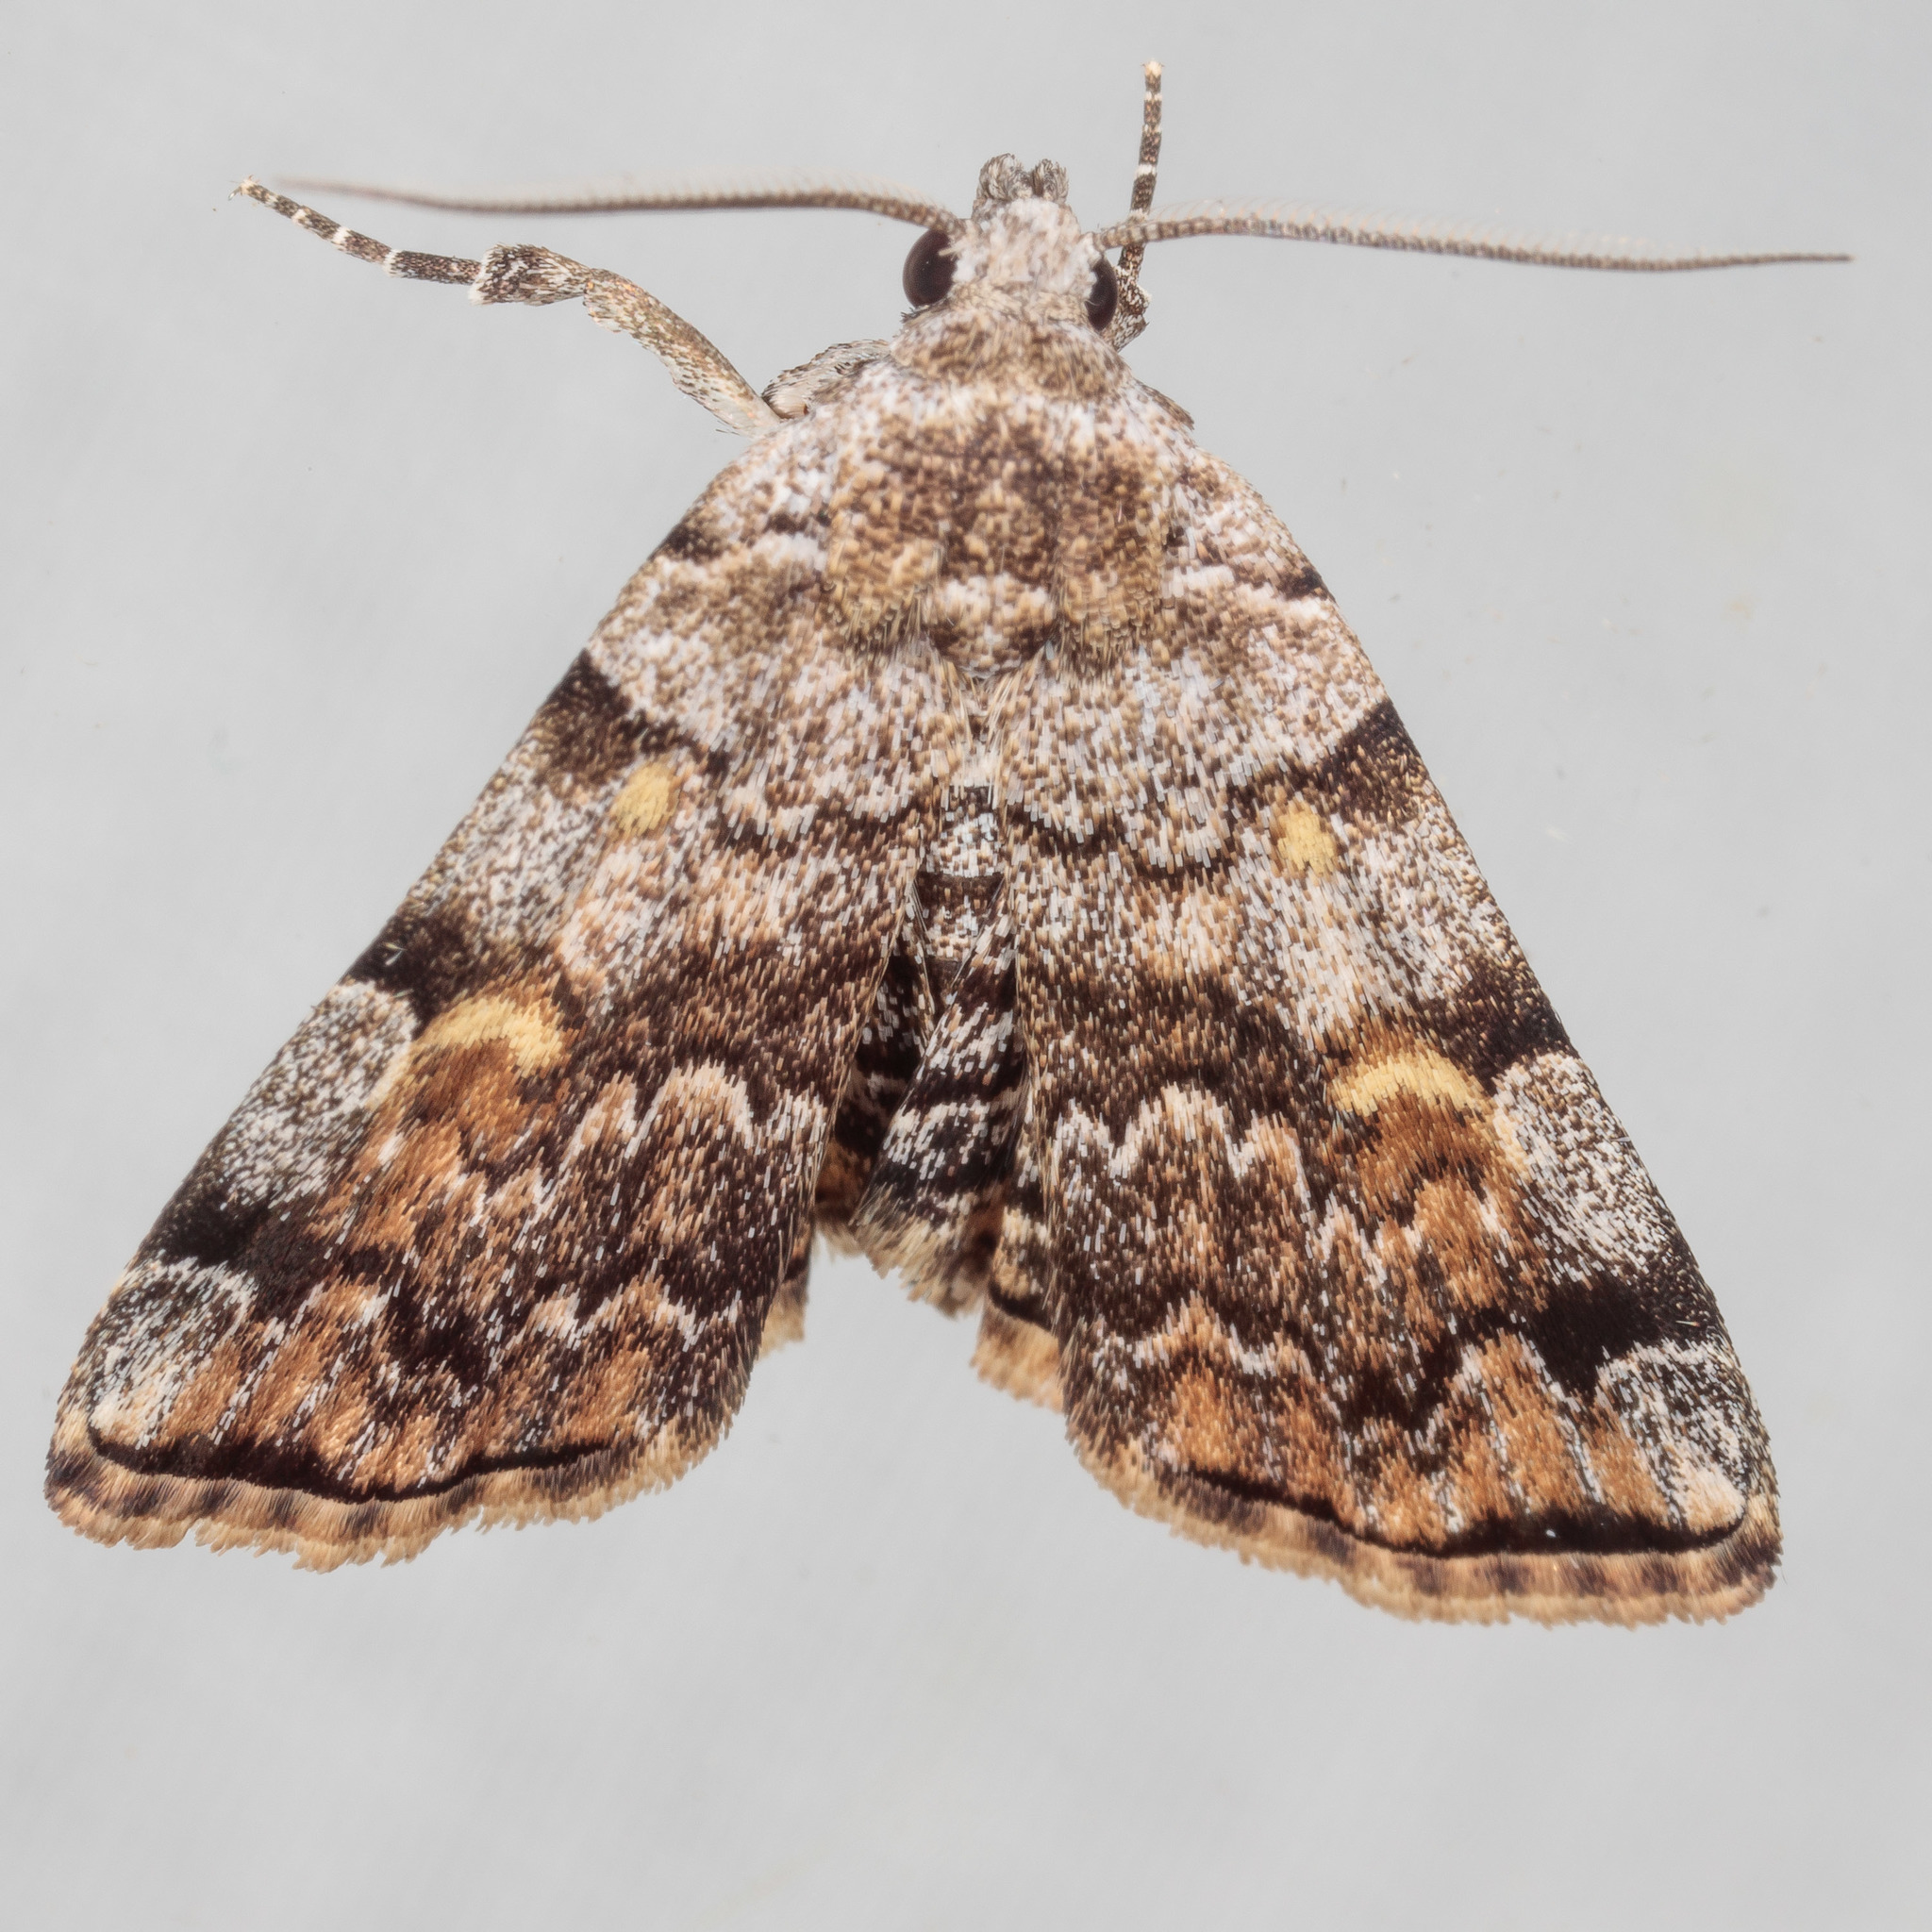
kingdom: Animalia
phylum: Arthropoda
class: Insecta
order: Lepidoptera
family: Erebidae
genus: Idia
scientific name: Idia americalis
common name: American idia moth
